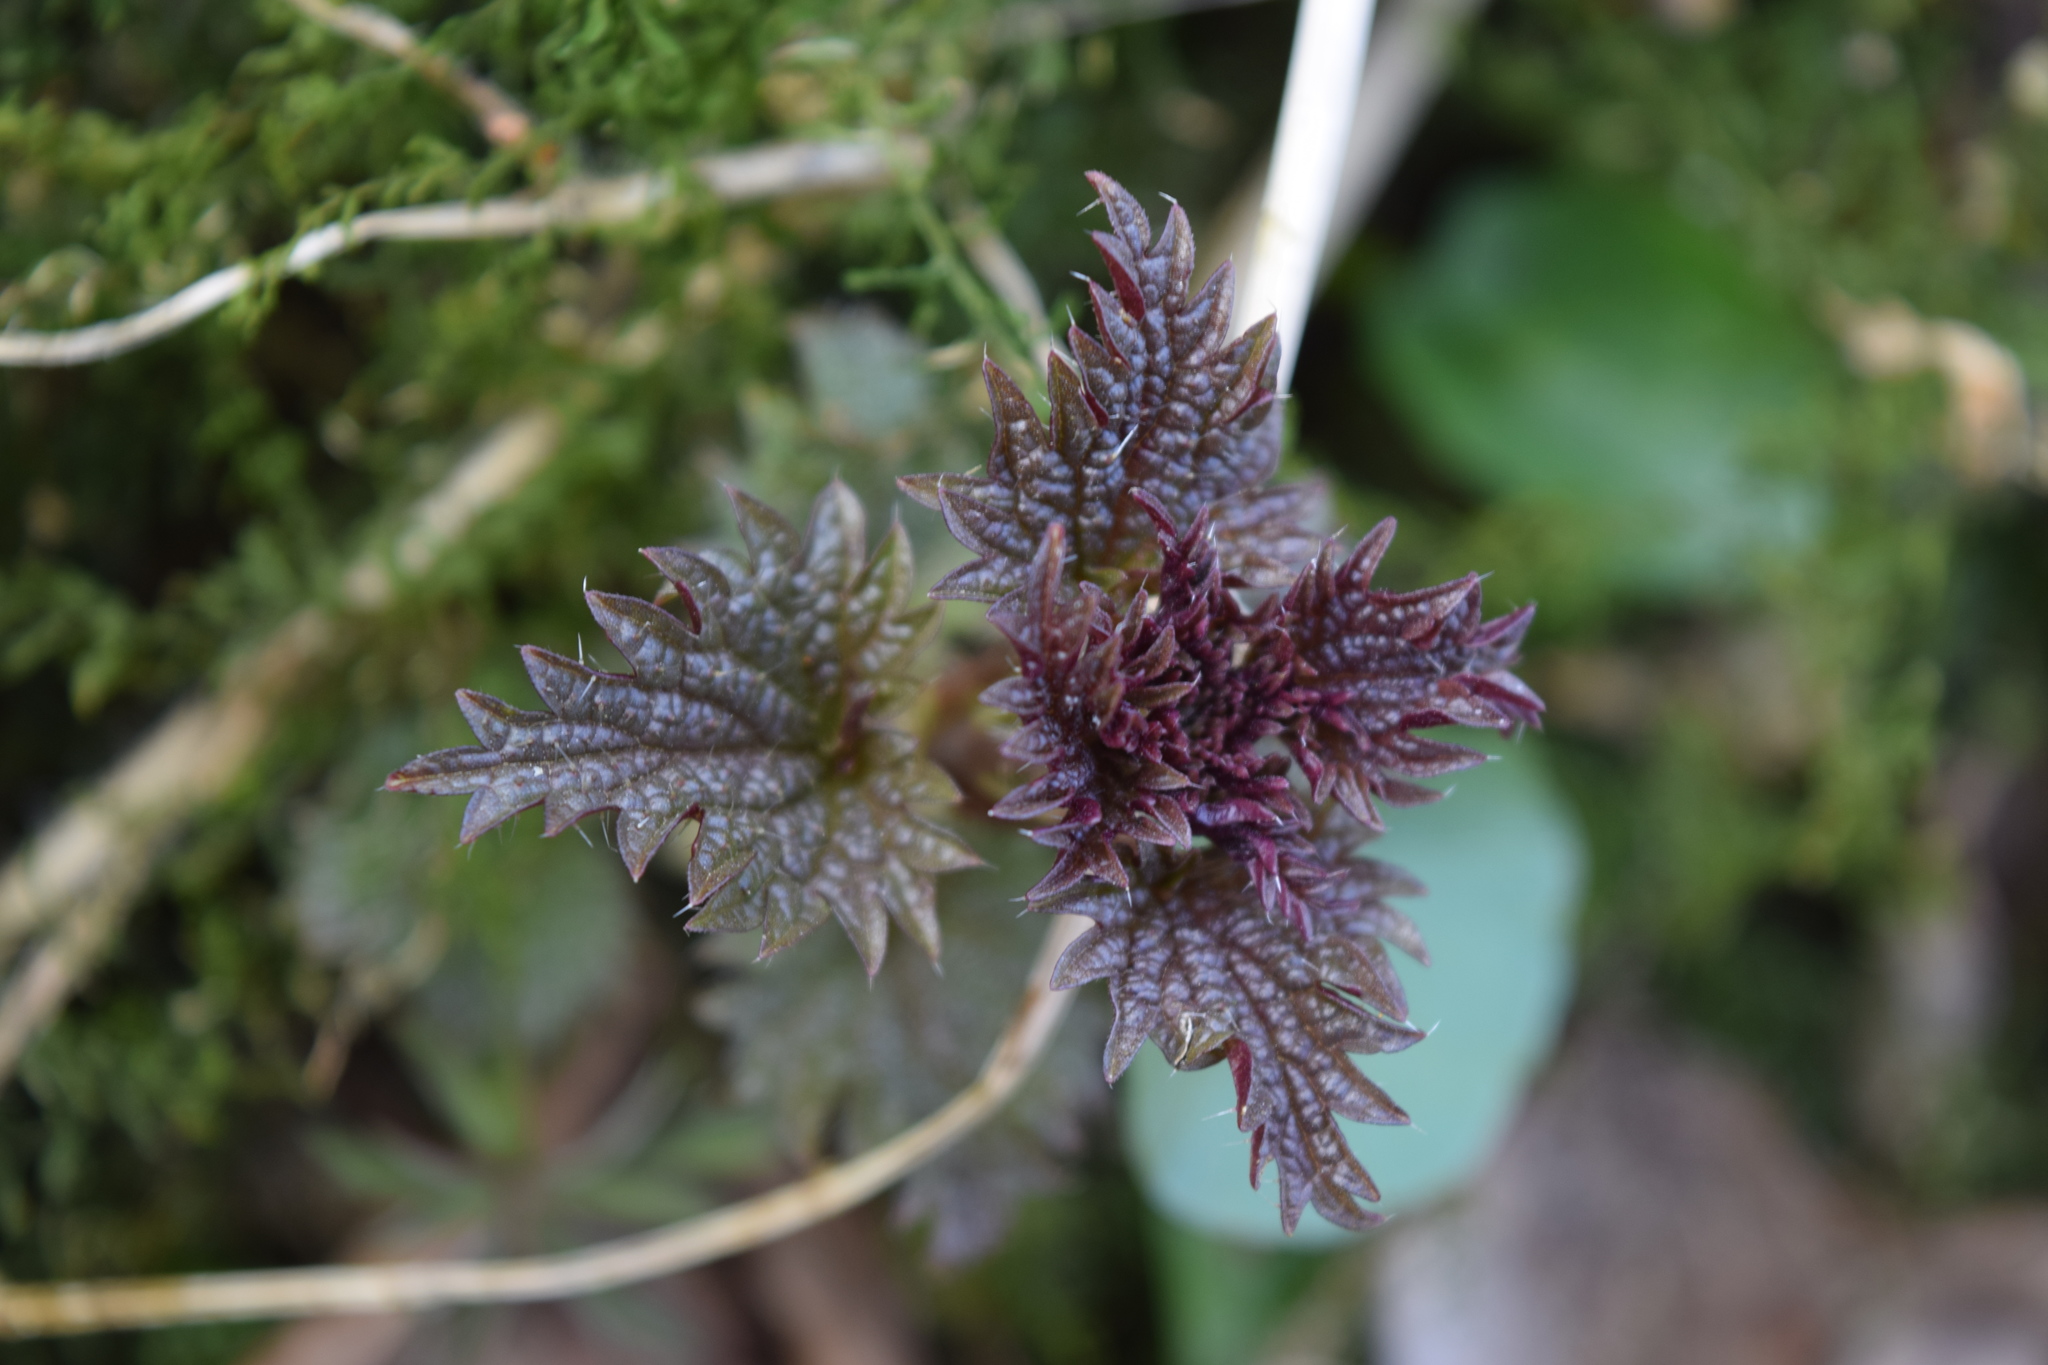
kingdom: Plantae
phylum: Tracheophyta
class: Magnoliopsida
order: Rosales
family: Urticaceae
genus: Urtica
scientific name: Urtica dioica
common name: Common nettle
